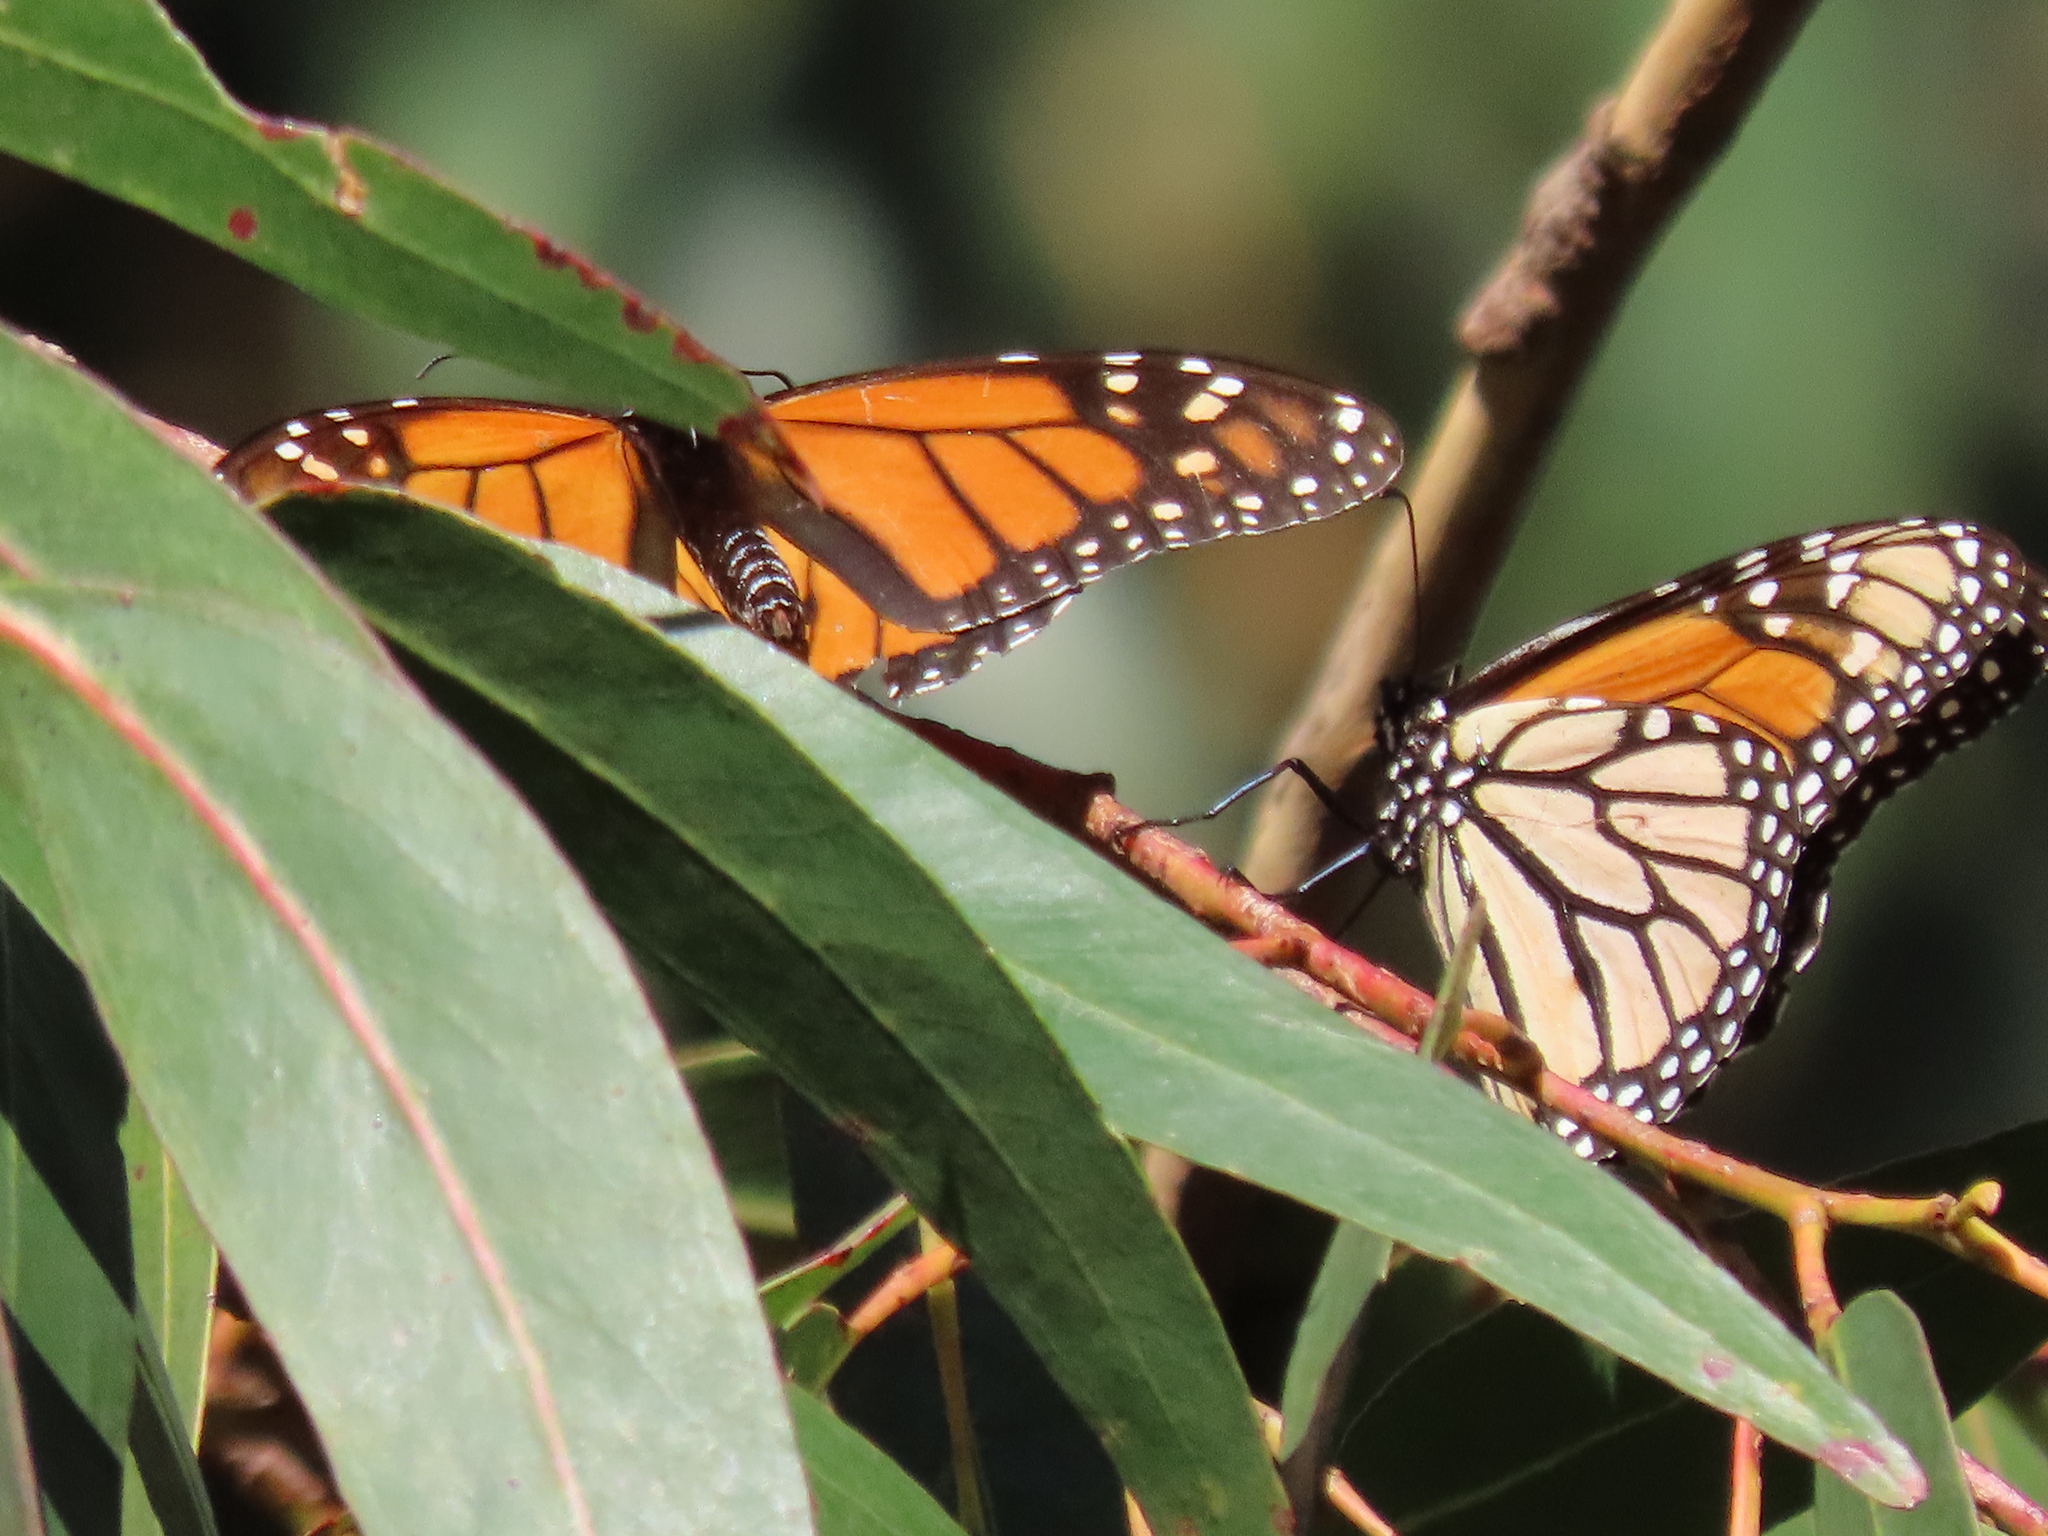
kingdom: Animalia
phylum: Arthropoda
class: Insecta
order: Lepidoptera
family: Nymphalidae
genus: Danaus
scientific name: Danaus plexippus
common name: Monarch
